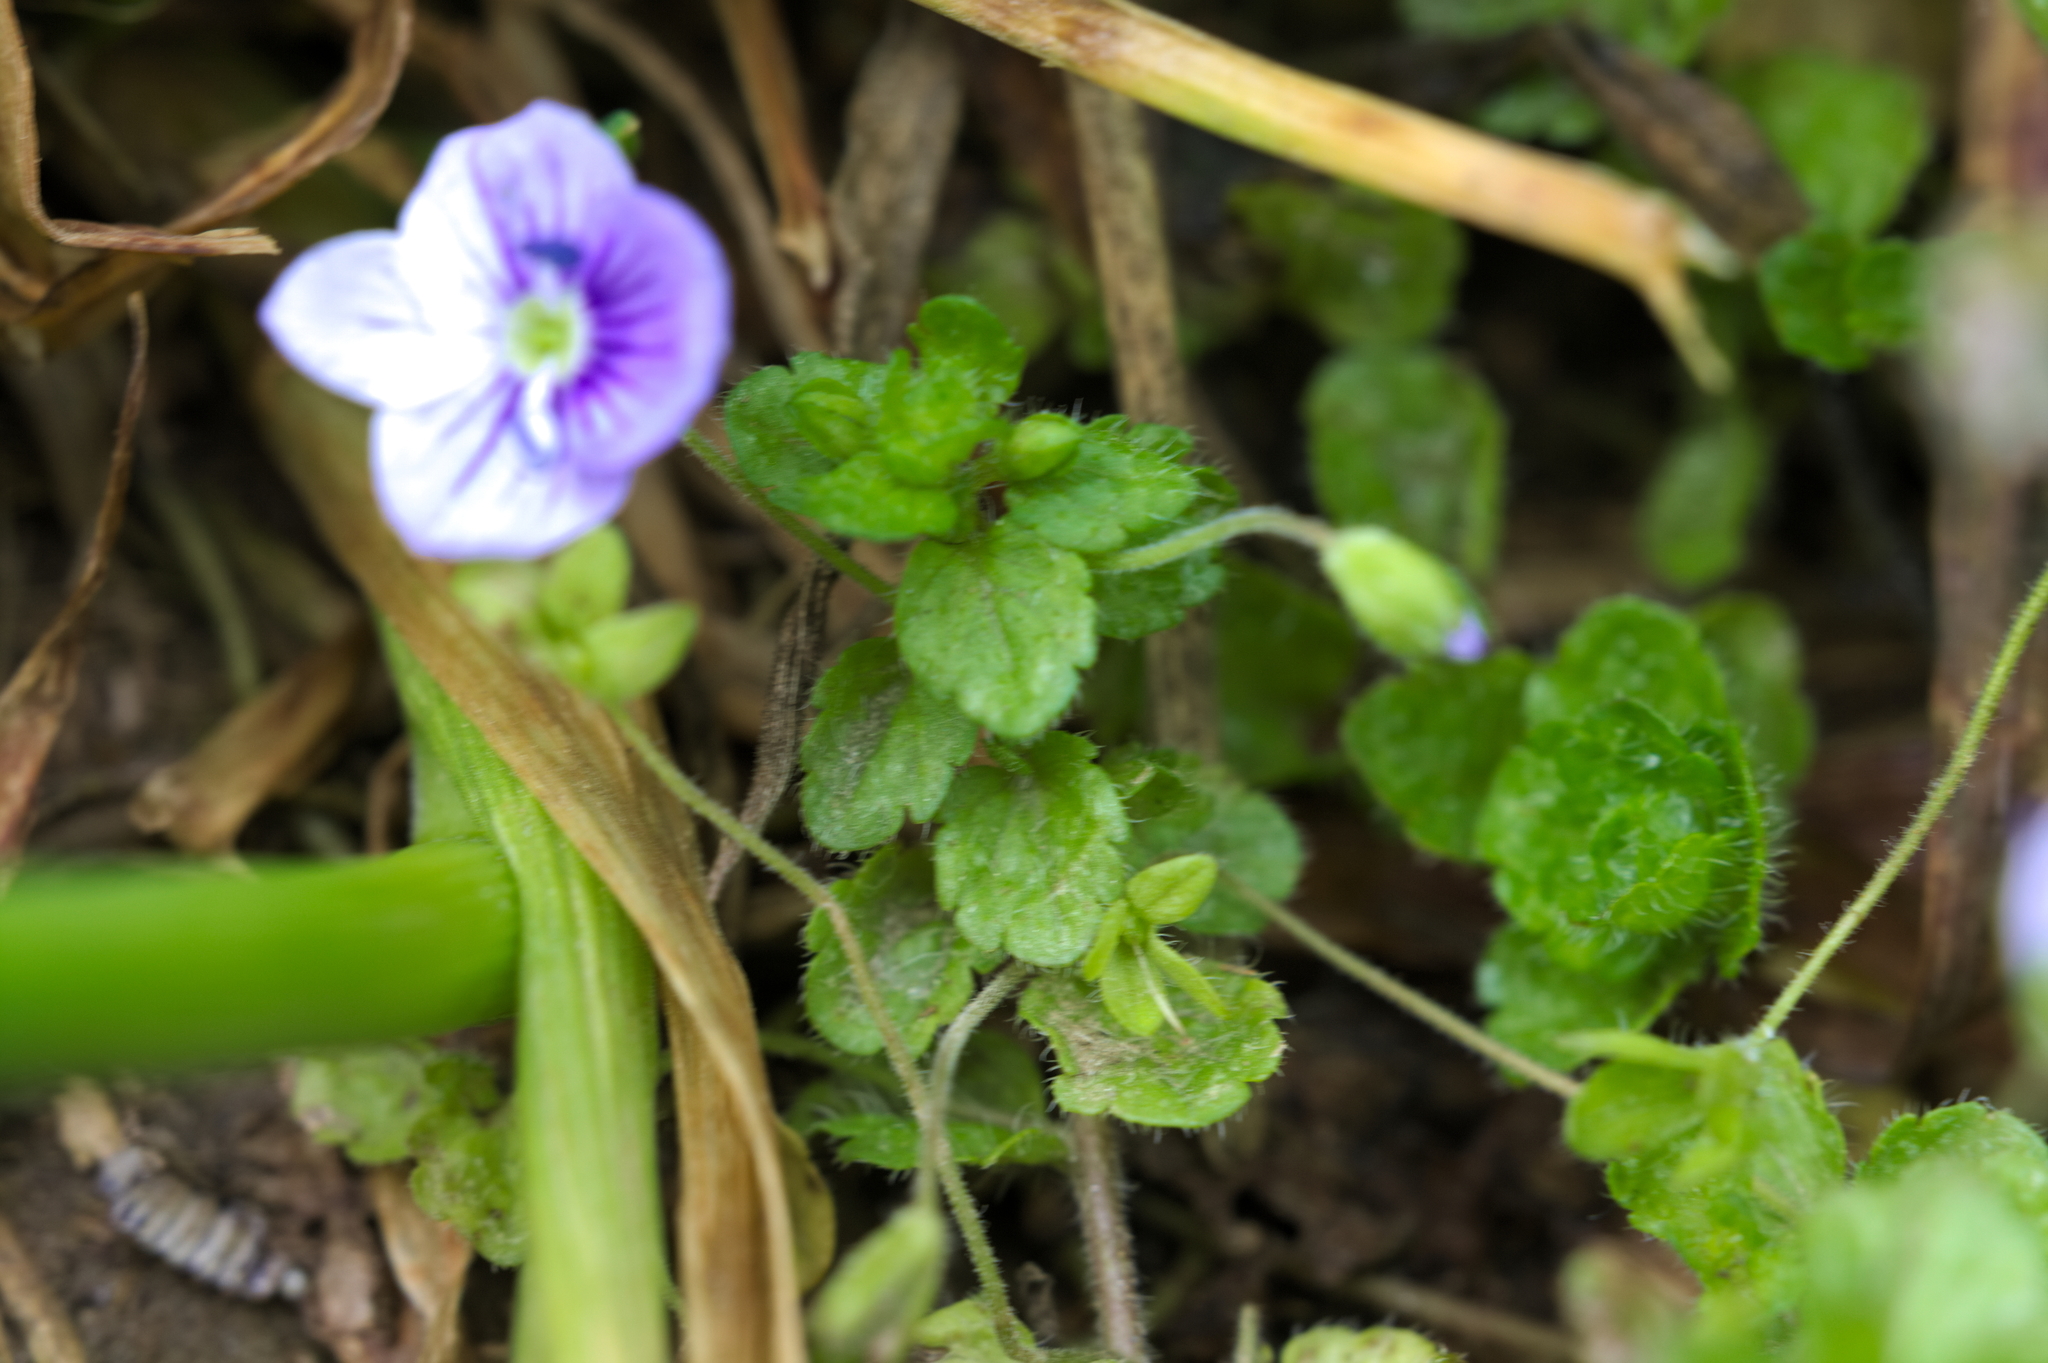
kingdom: Plantae
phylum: Tracheophyta
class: Magnoliopsida
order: Lamiales
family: Plantaginaceae
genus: Veronica
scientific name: Veronica filiformis
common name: Slender speedwell
